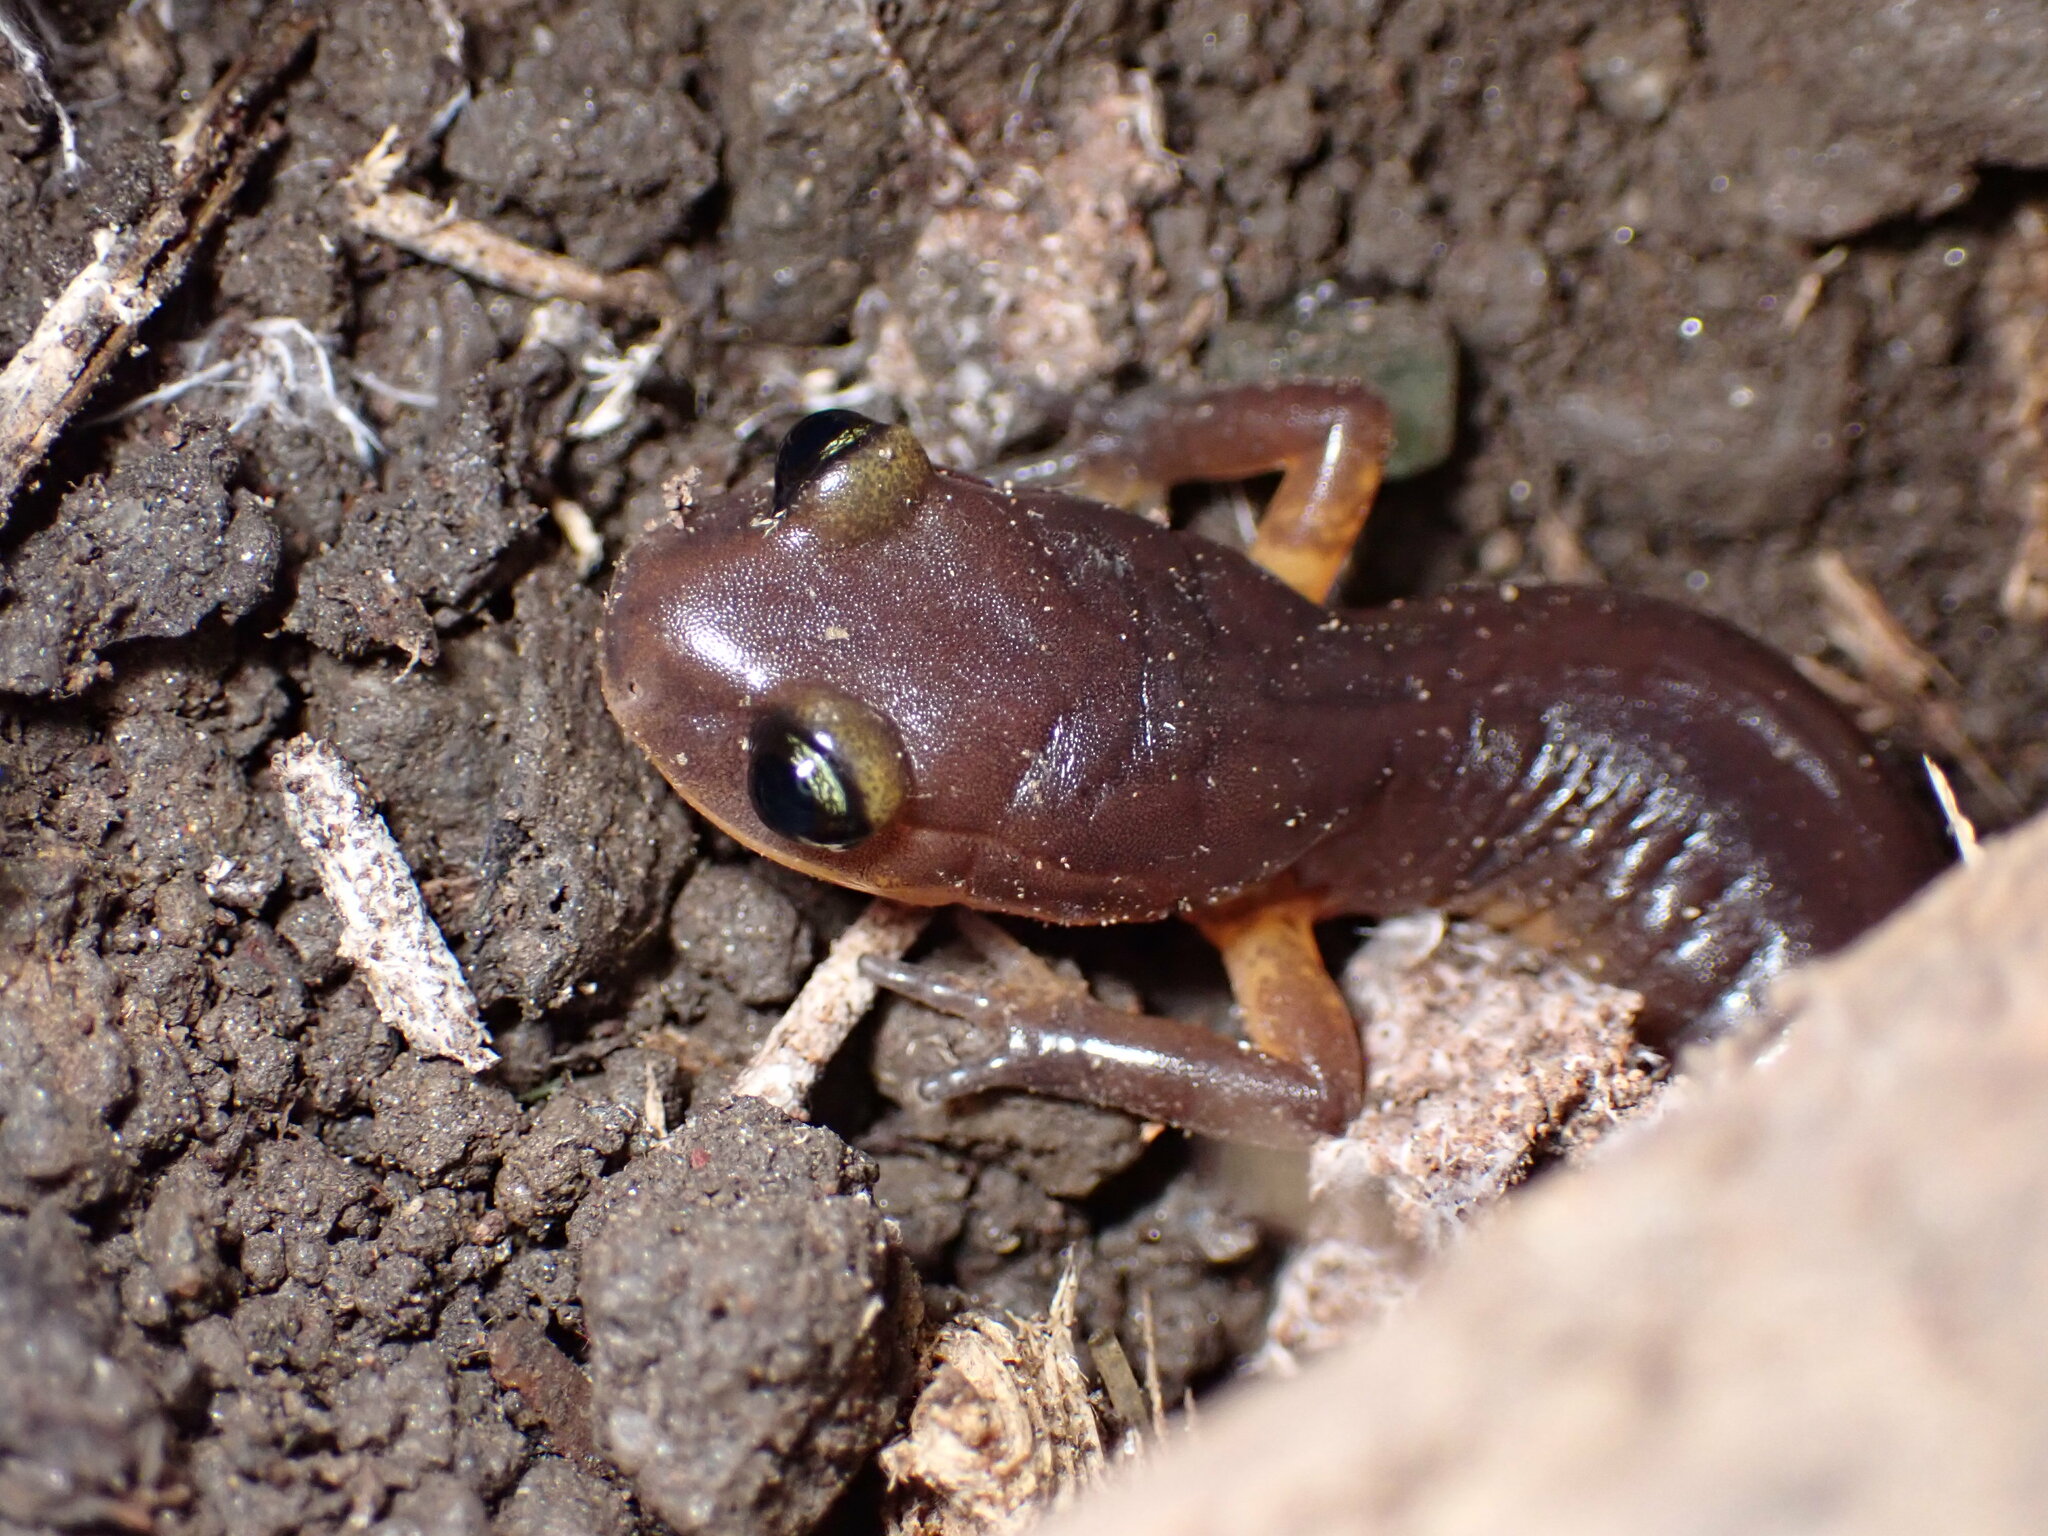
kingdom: Animalia
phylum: Chordata
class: Amphibia
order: Caudata
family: Plethodontidae
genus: Ensatina
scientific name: Ensatina eschscholtzii
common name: Ensatina
